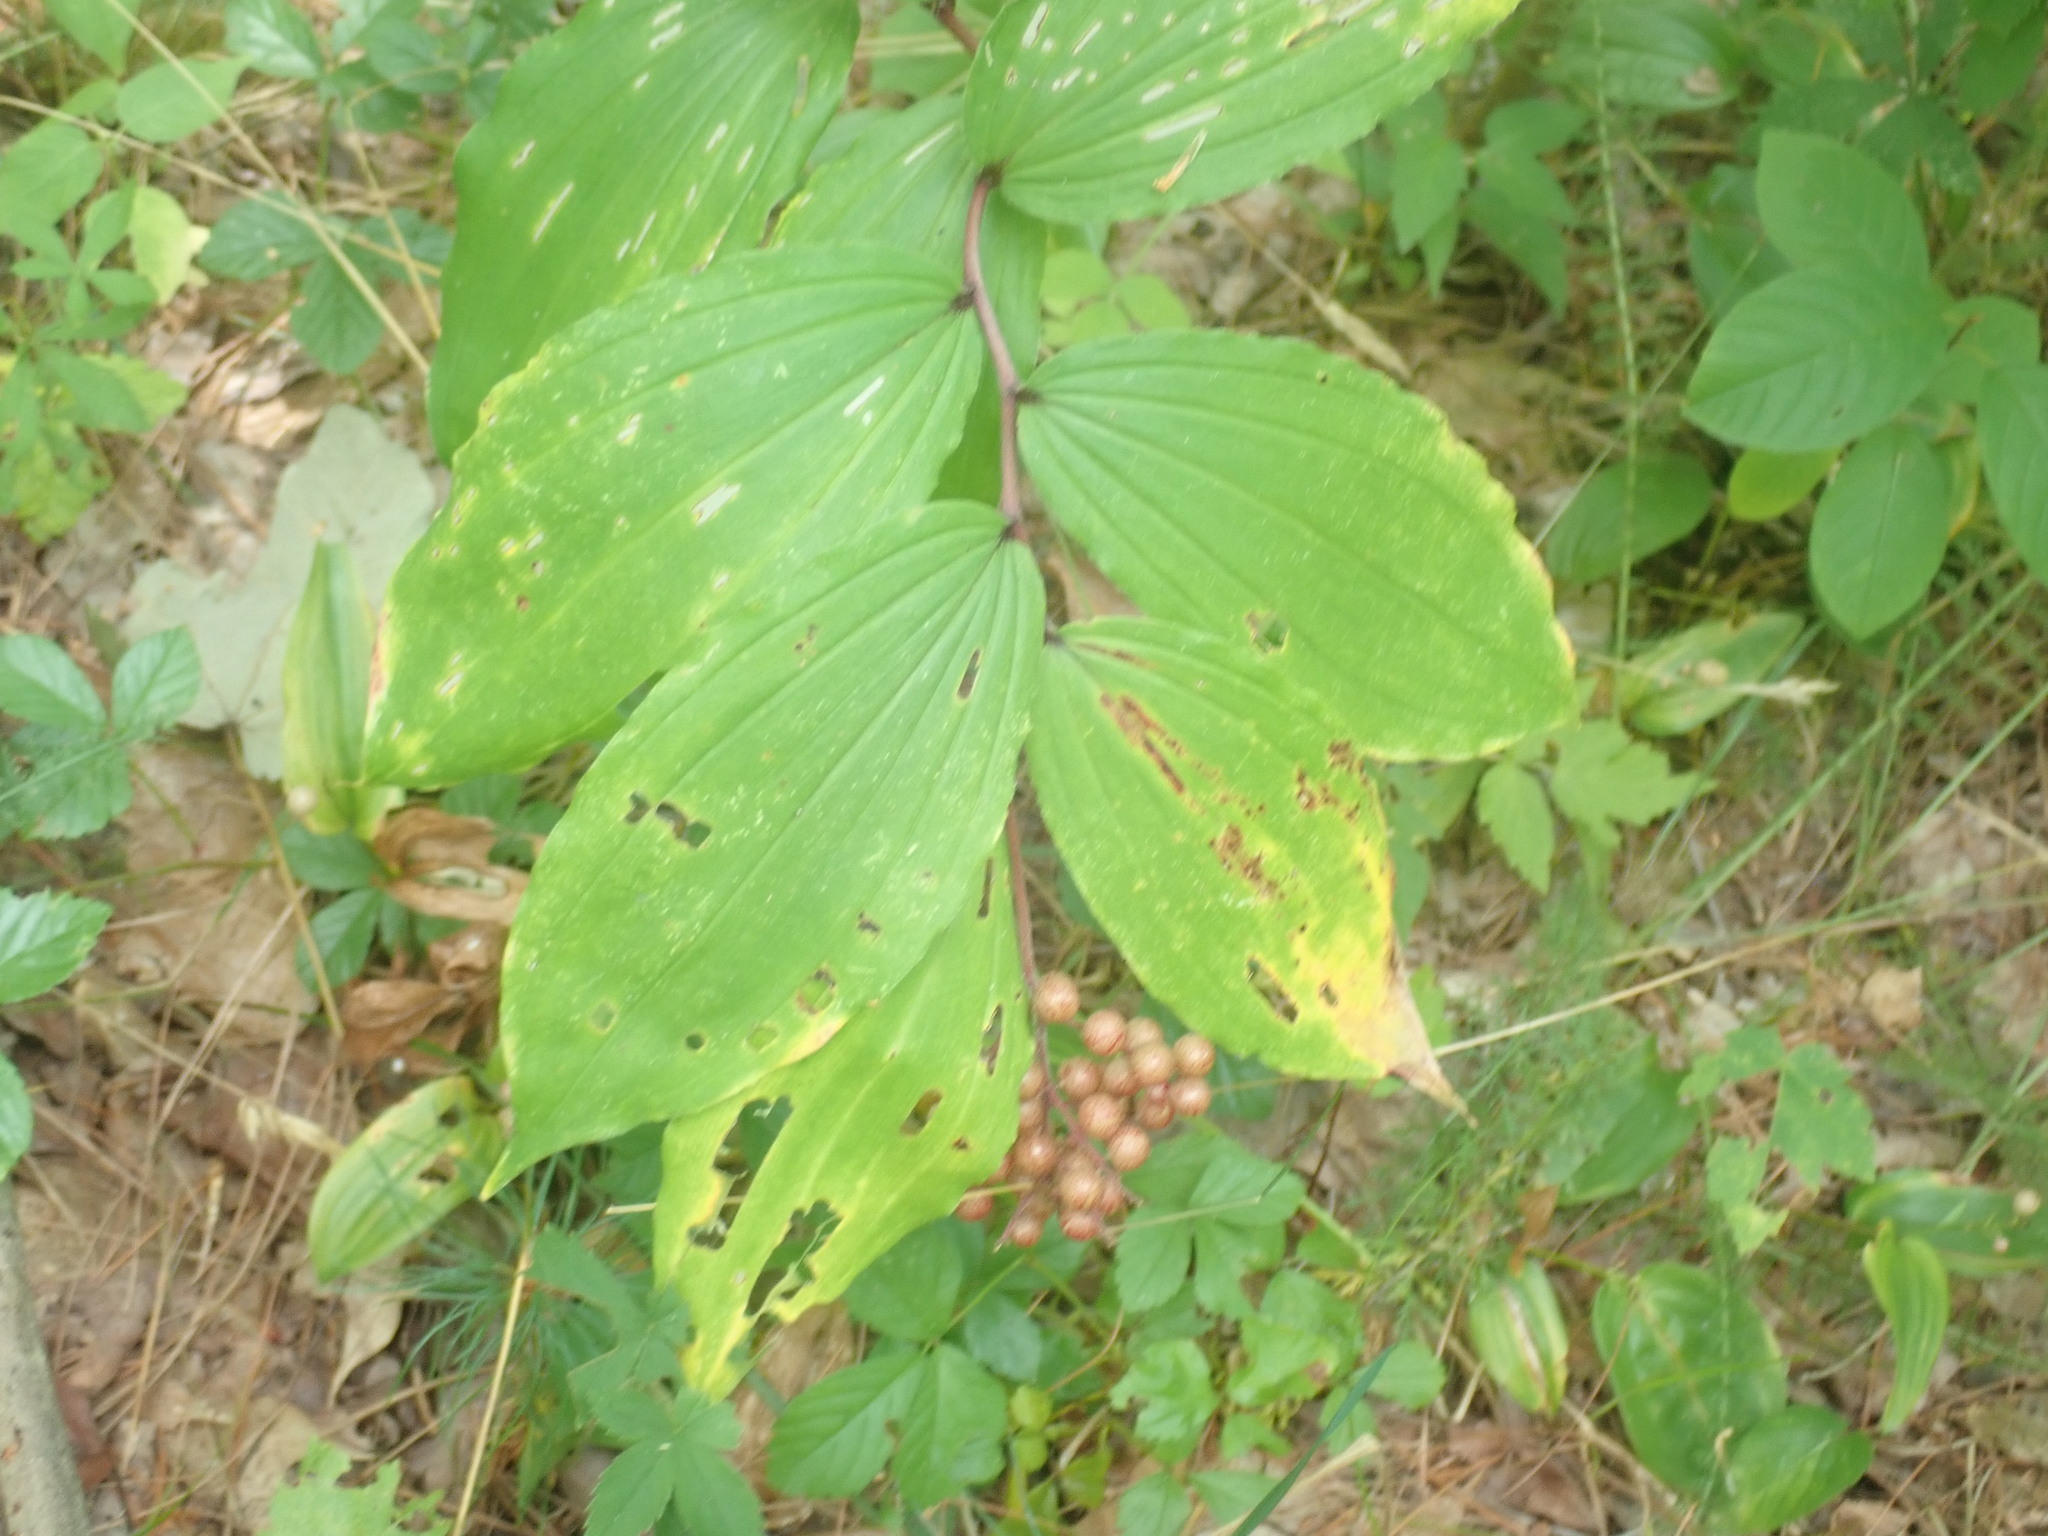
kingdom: Plantae
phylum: Tracheophyta
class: Liliopsida
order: Asparagales
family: Asparagaceae
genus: Maianthemum
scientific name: Maianthemum racemosum
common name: False spikenard
